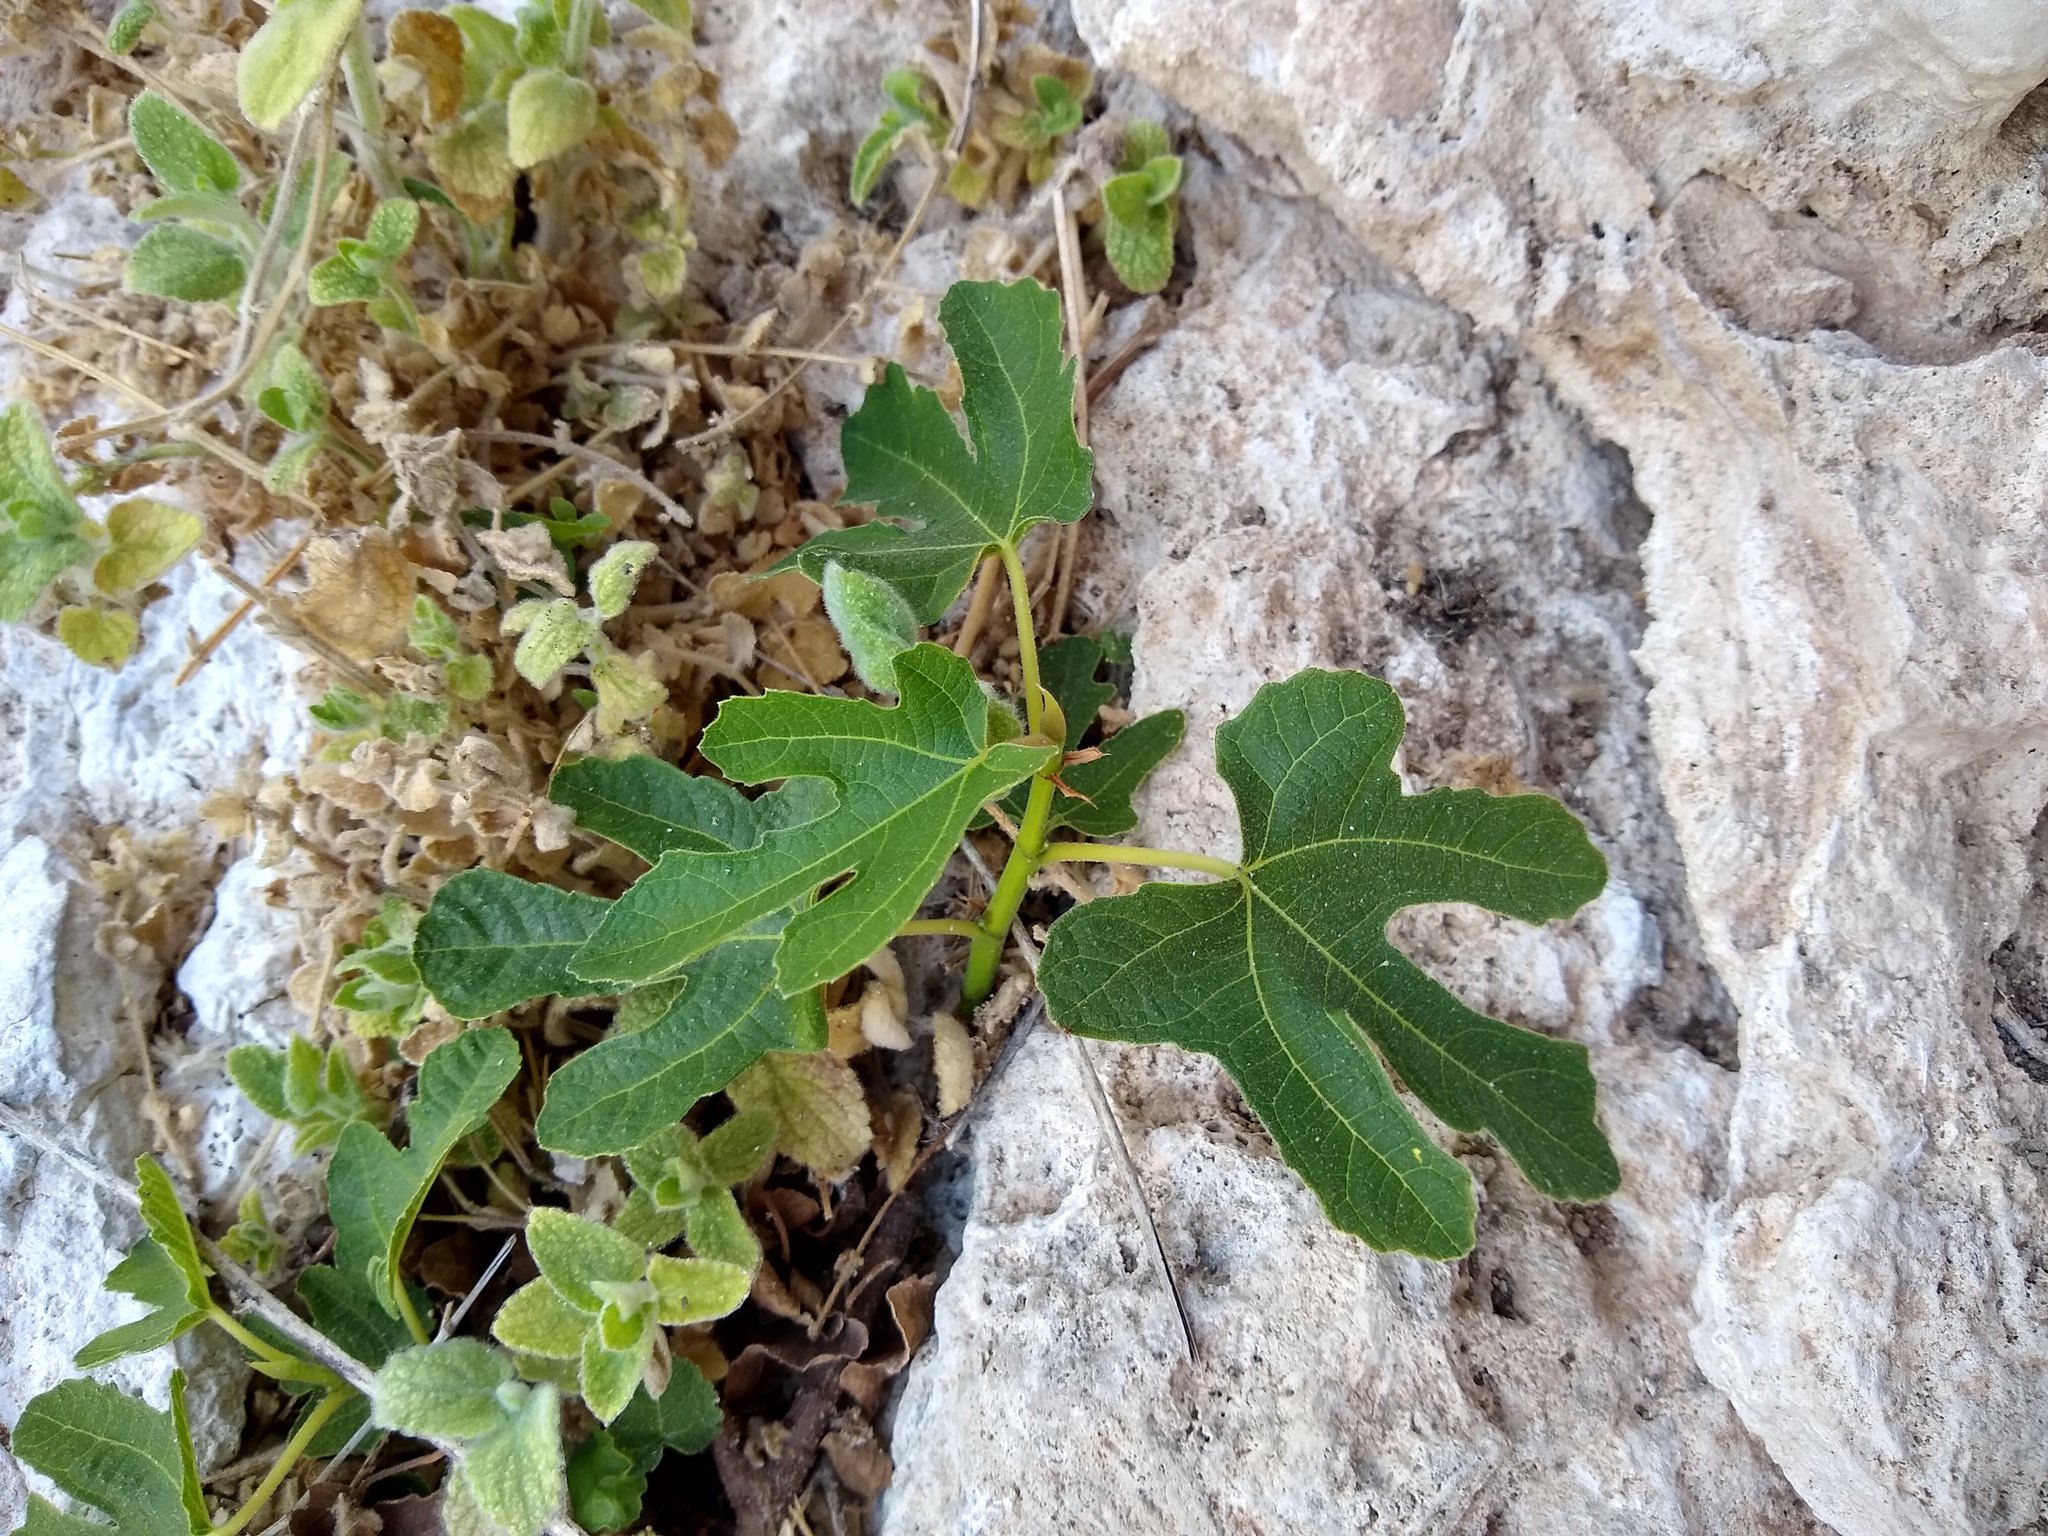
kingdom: Plantae
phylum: Tracheophyta
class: Magnoliopsida
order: Rosales
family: Moraceae
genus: Ficus
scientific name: Ficus carica
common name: Fig
